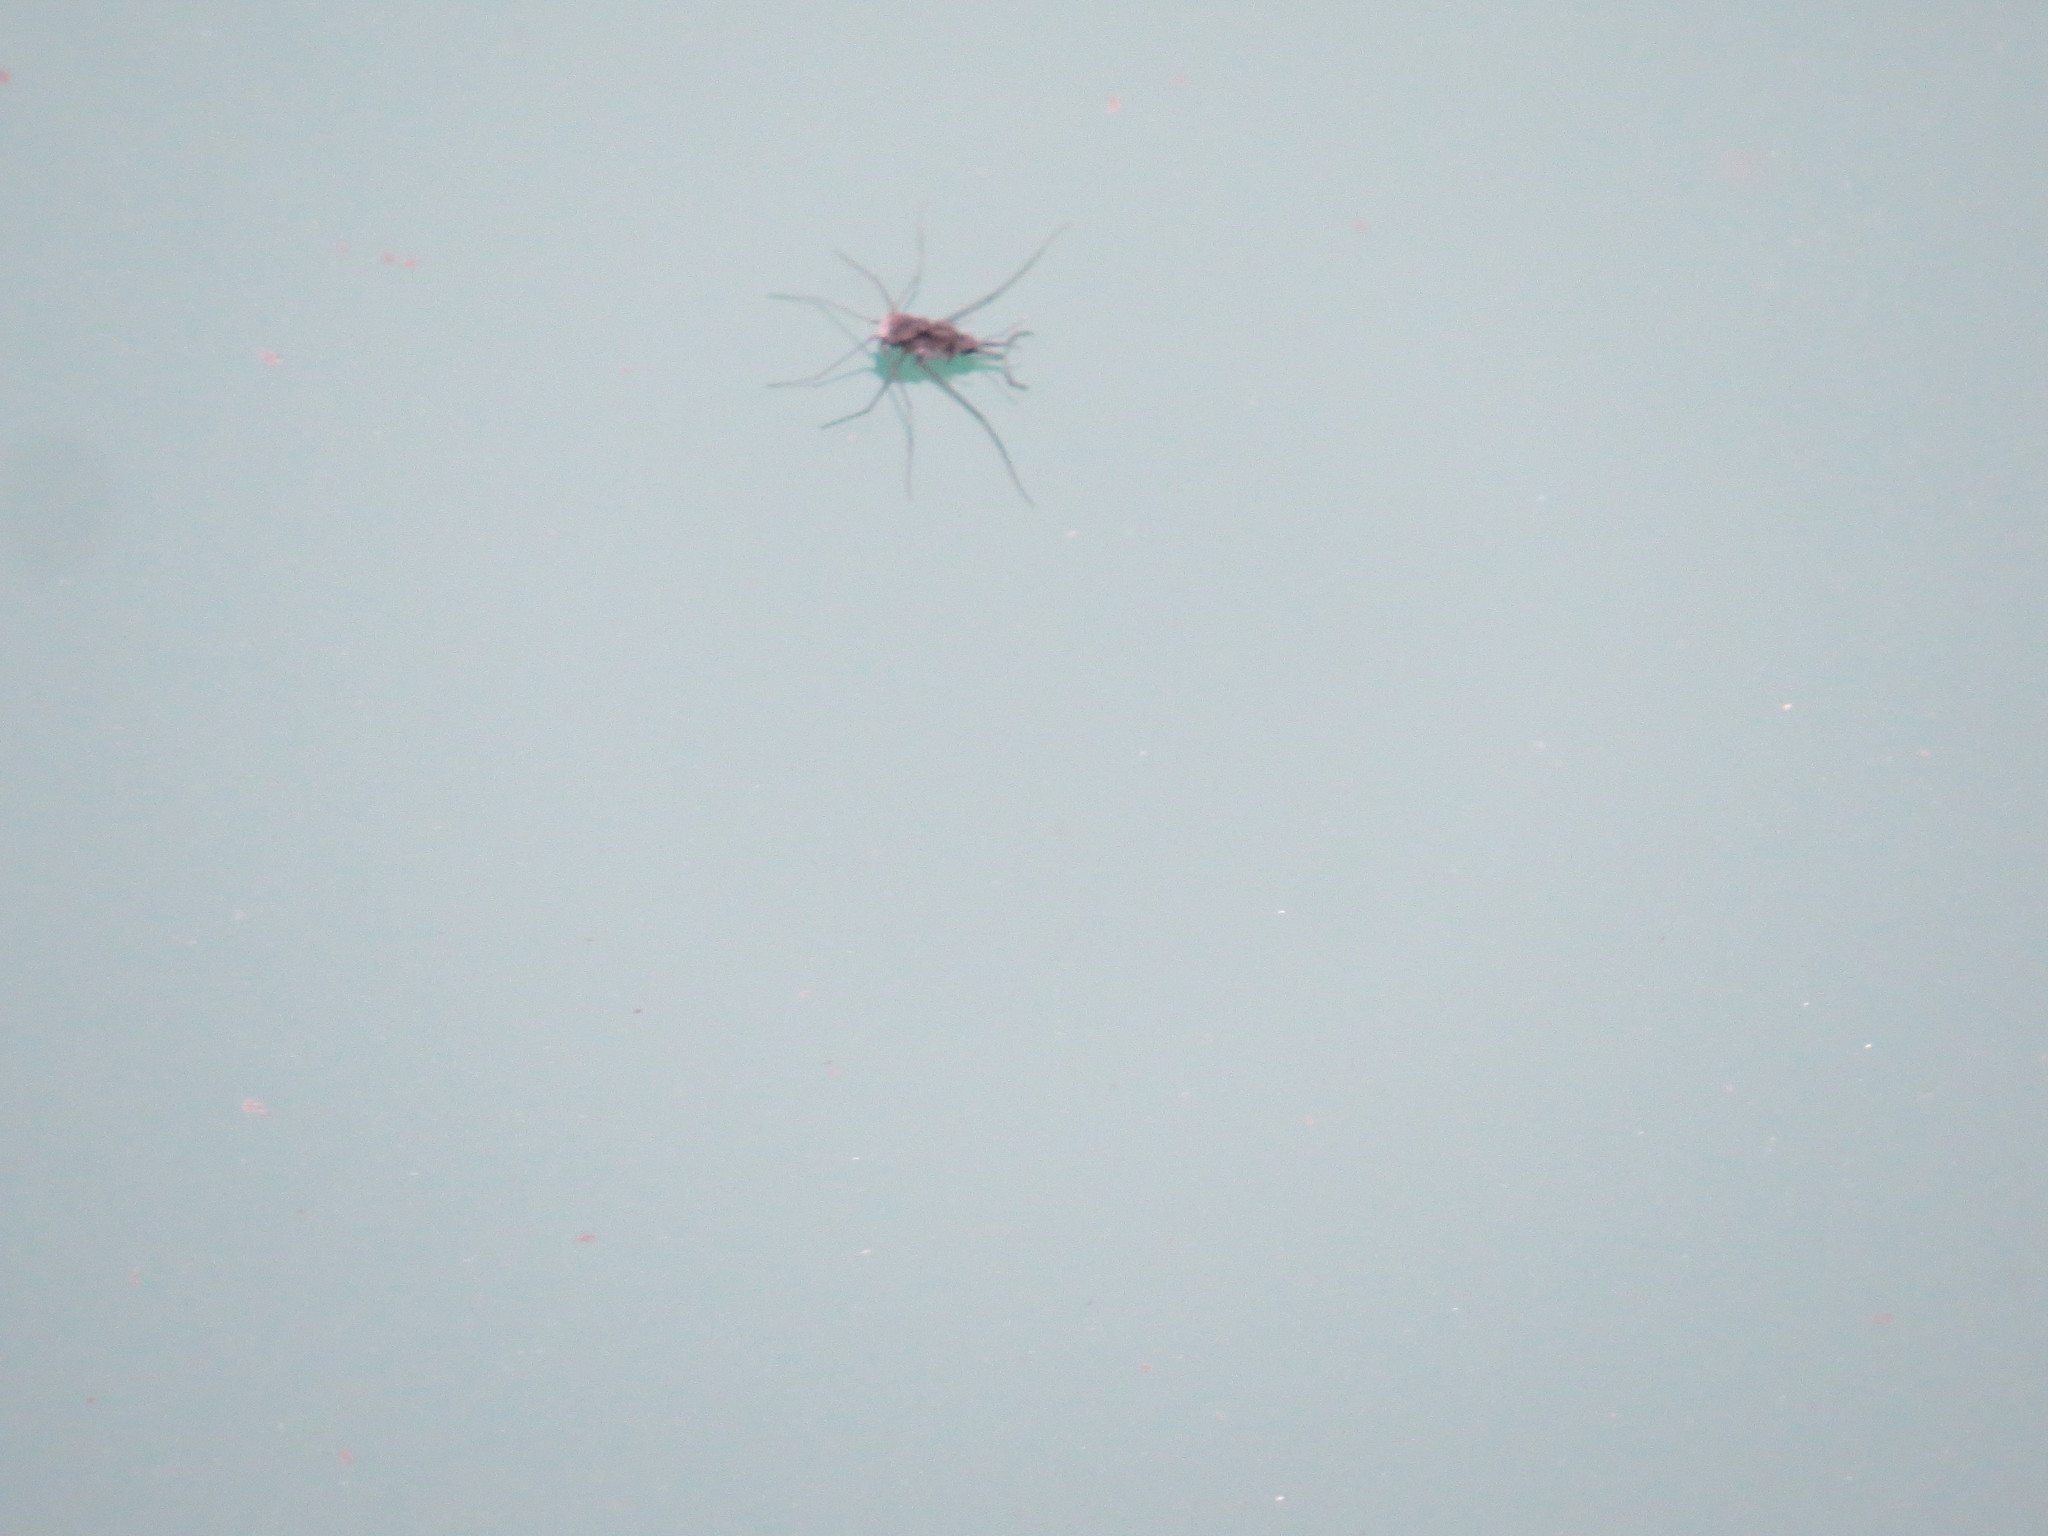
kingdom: Animalia
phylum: Arthropoda
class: Insecta
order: Hemiptera
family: Gerridae
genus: Halobates
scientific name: Halobates
